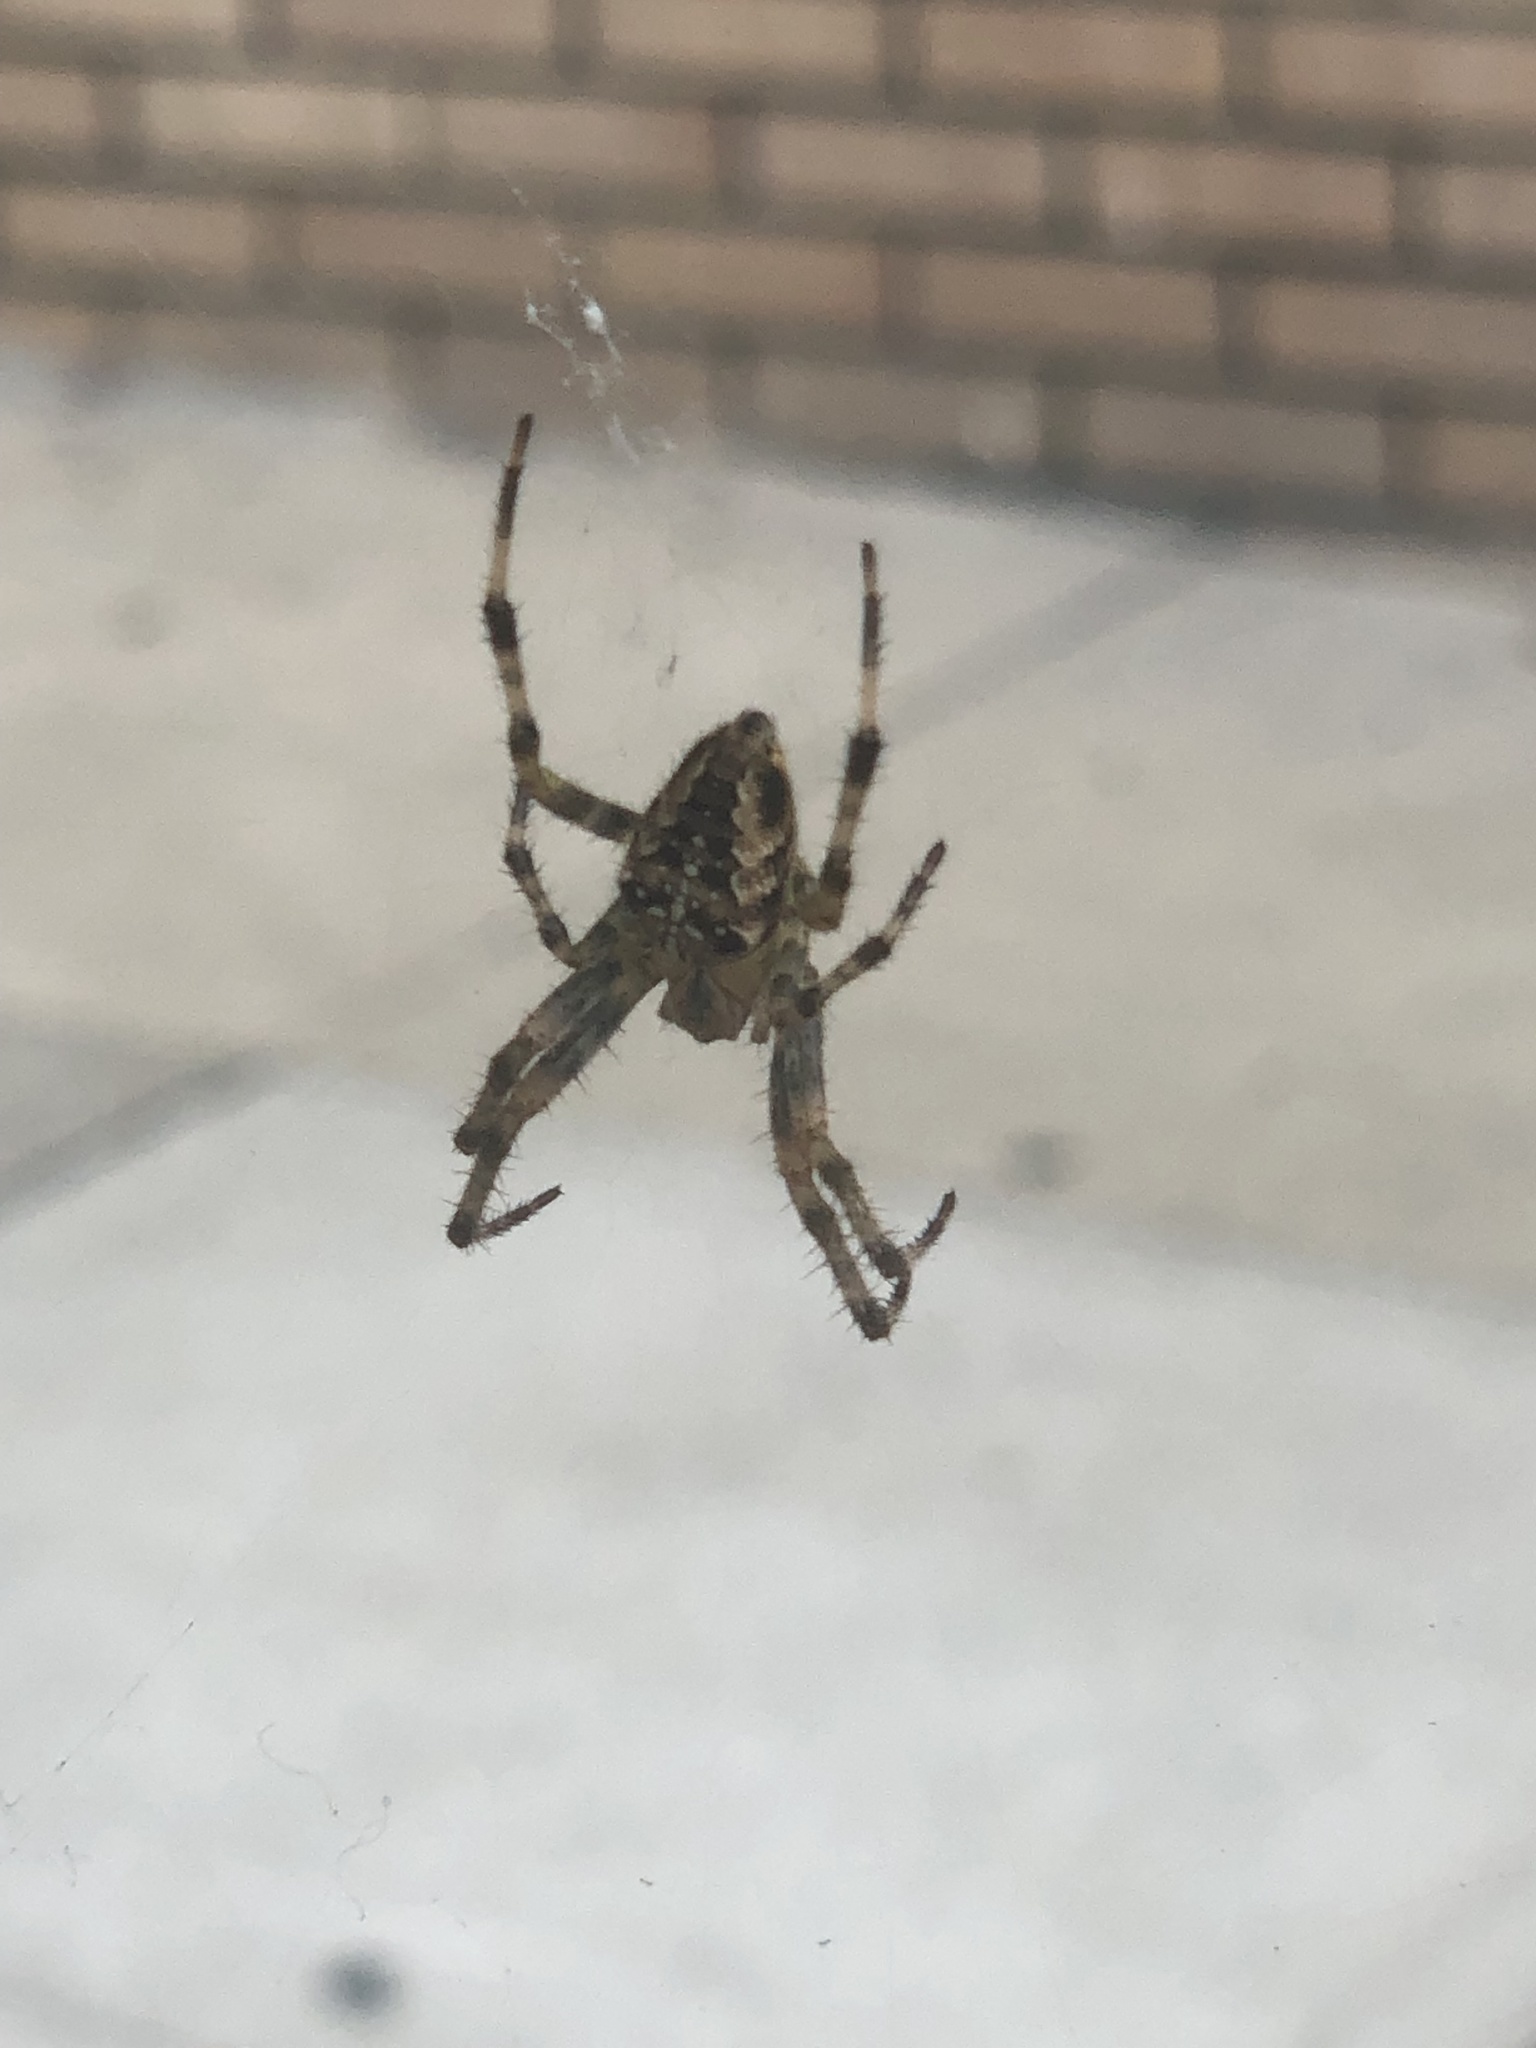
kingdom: Animalia
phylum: Arthropoda
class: Arachnida
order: Araneae
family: Araneidae
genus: Araneus
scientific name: Araneus diadematus
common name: Cross orbweaver
